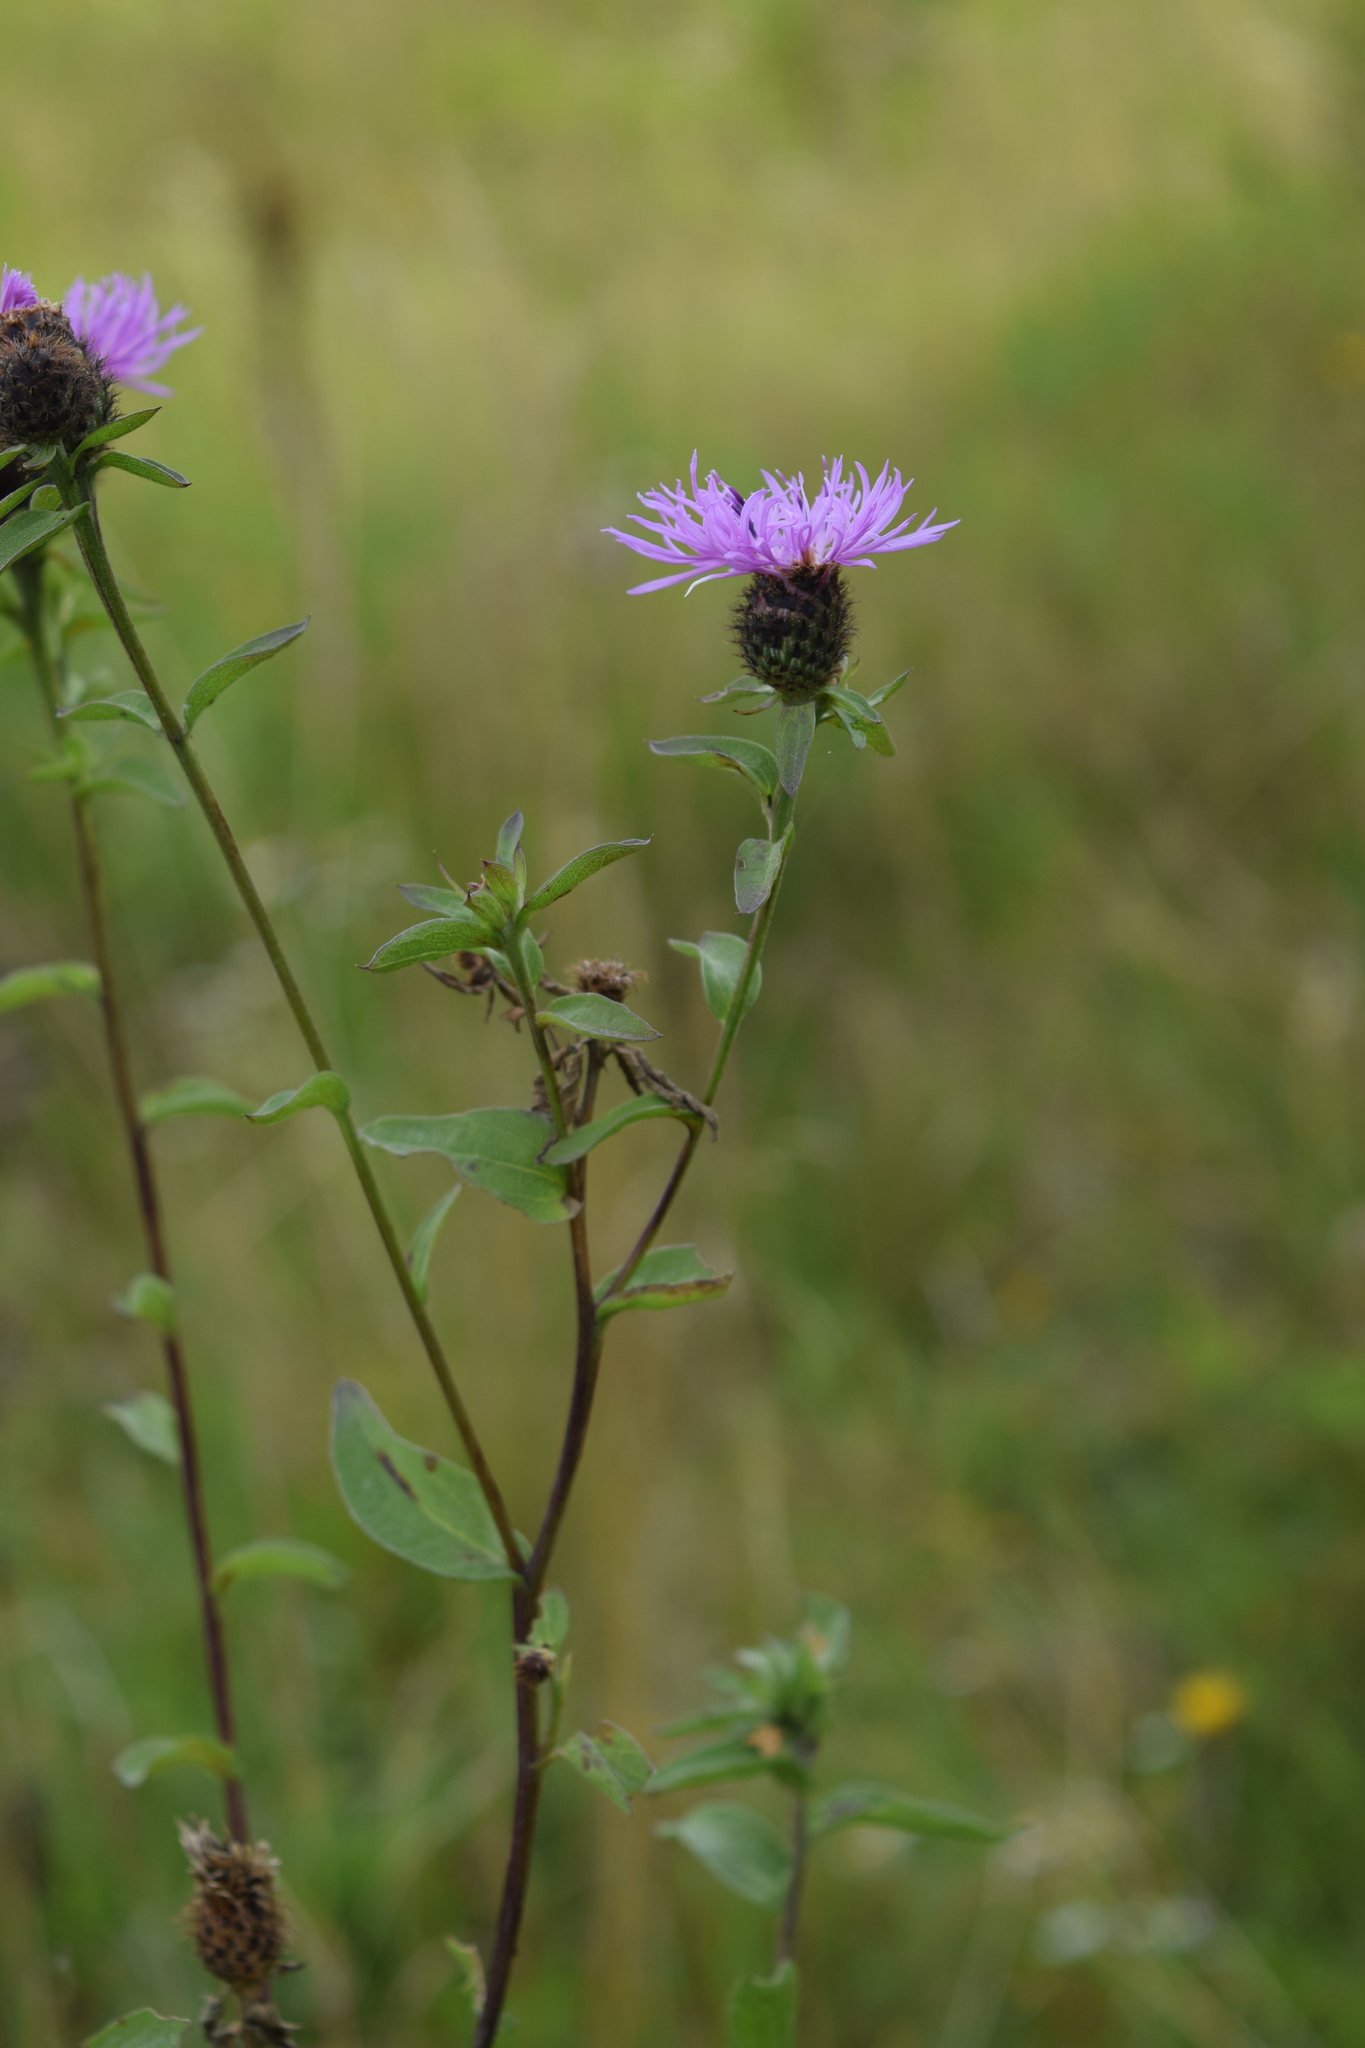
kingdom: Plantae
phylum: Tracheophyta
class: Magnoliopsida
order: Asterales
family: Asteraceae
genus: Centaurea
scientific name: Centaurea phrygia
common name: Wig knapweed
